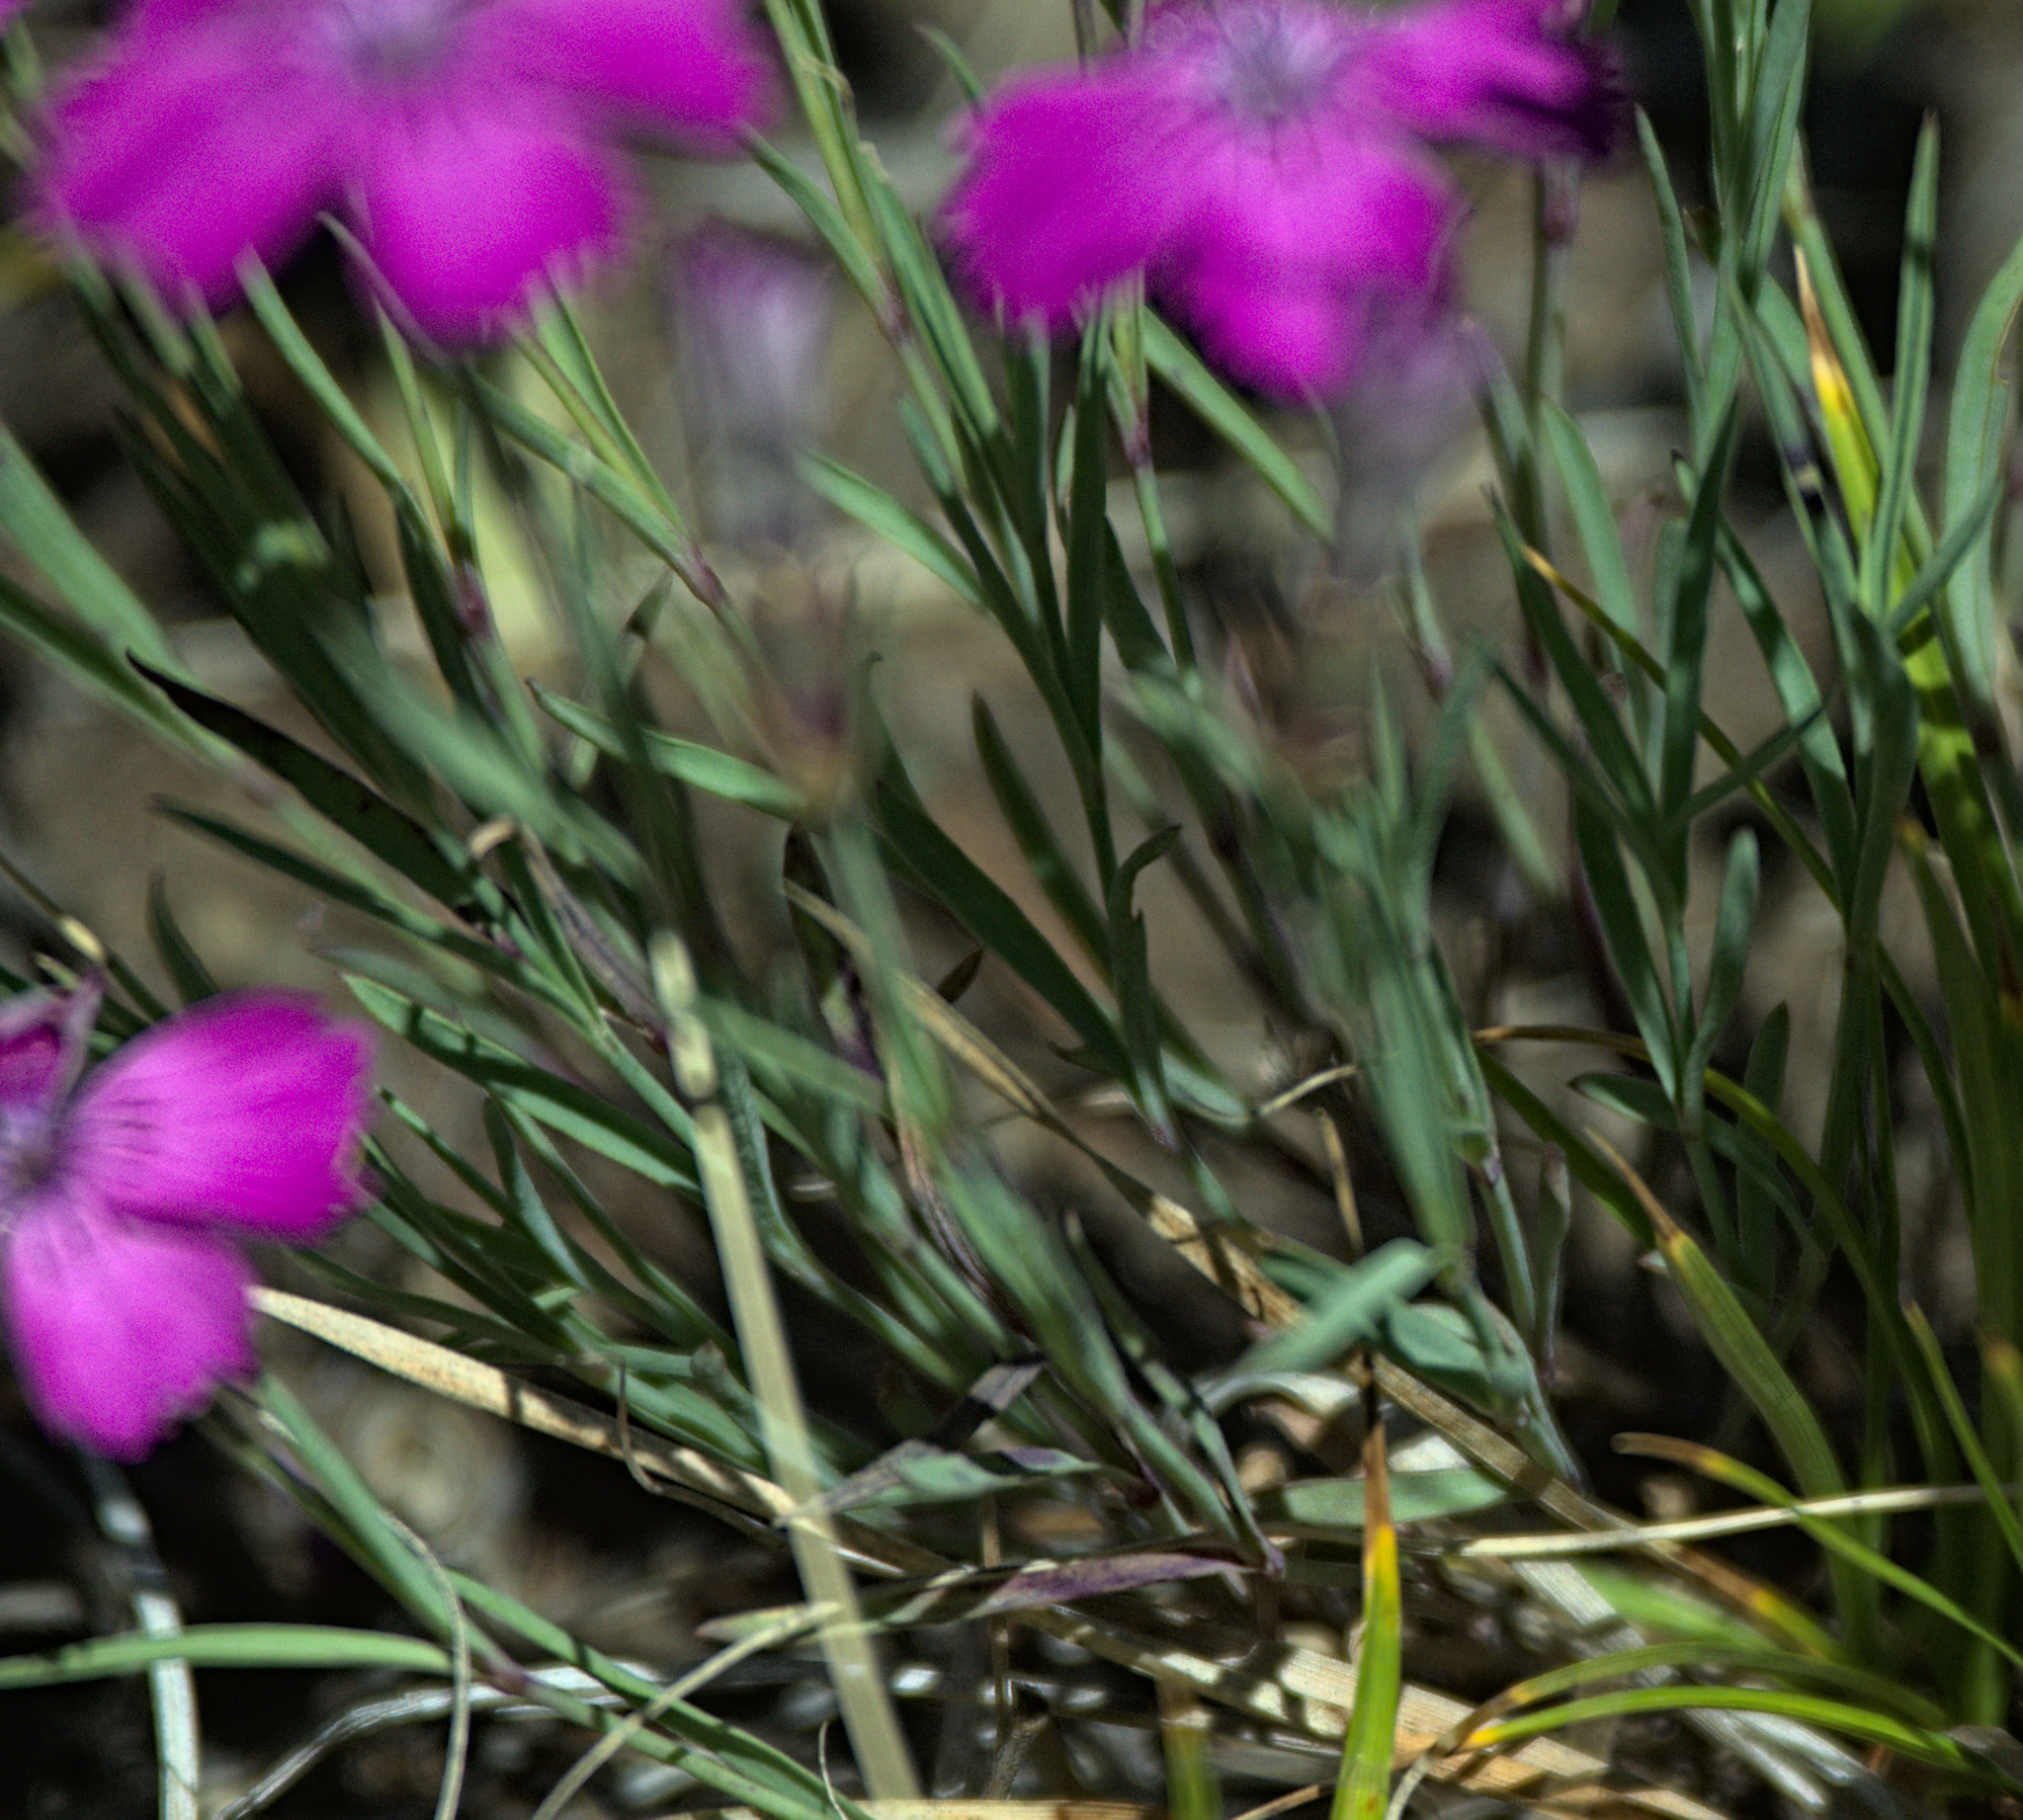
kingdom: Plantae
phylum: Tracheophyta
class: Magnoliopsida
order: Caryophyllales
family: Caryophyllaceae
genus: Dianthus
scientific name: Dianthus chinensis
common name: Rainbow pink
